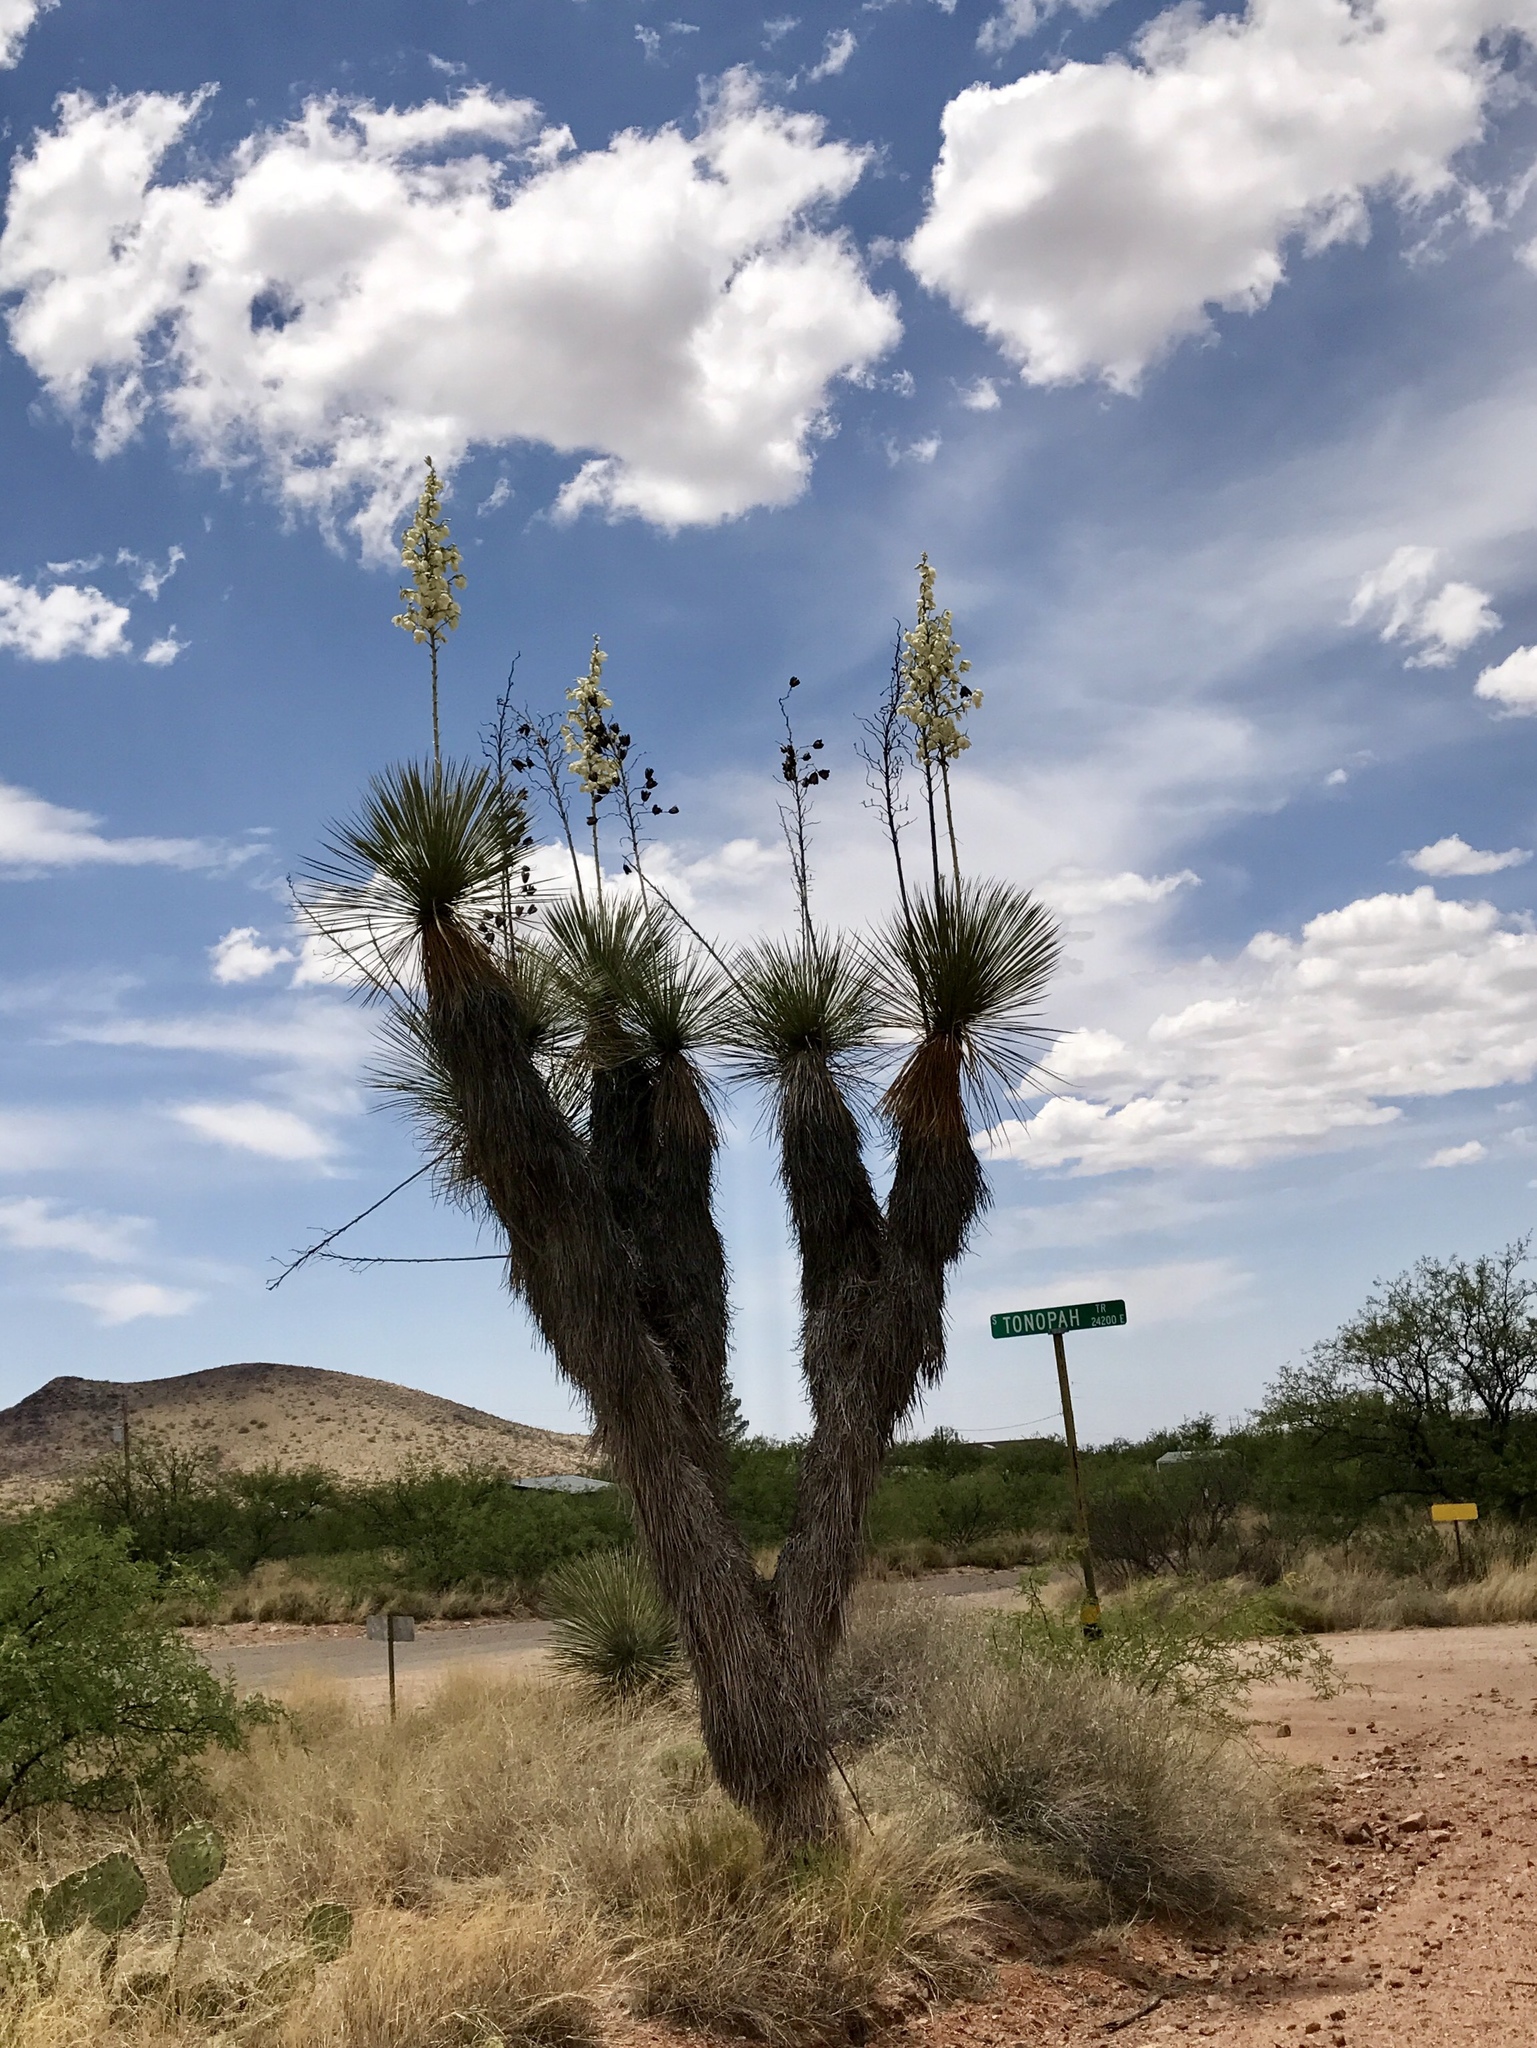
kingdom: Plantae
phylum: Tracheophyta
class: Liliopsida
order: Asparagales
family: Asparagaceae
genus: Yucca
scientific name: Yucca elata
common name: Palmella
